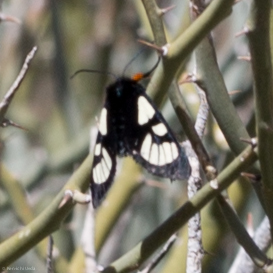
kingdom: Animalia
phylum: Arthropoda
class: Insecta
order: Lepidoptera
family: Noctuidae
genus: Alypia
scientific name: Alypia ridingsii
